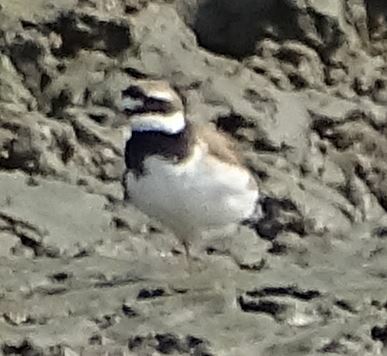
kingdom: Animalia
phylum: Chordata
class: Aves
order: Charadriiformes
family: Charadriidae
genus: Charadrius
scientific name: Charadrius hiaticula
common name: Common ringed plover
